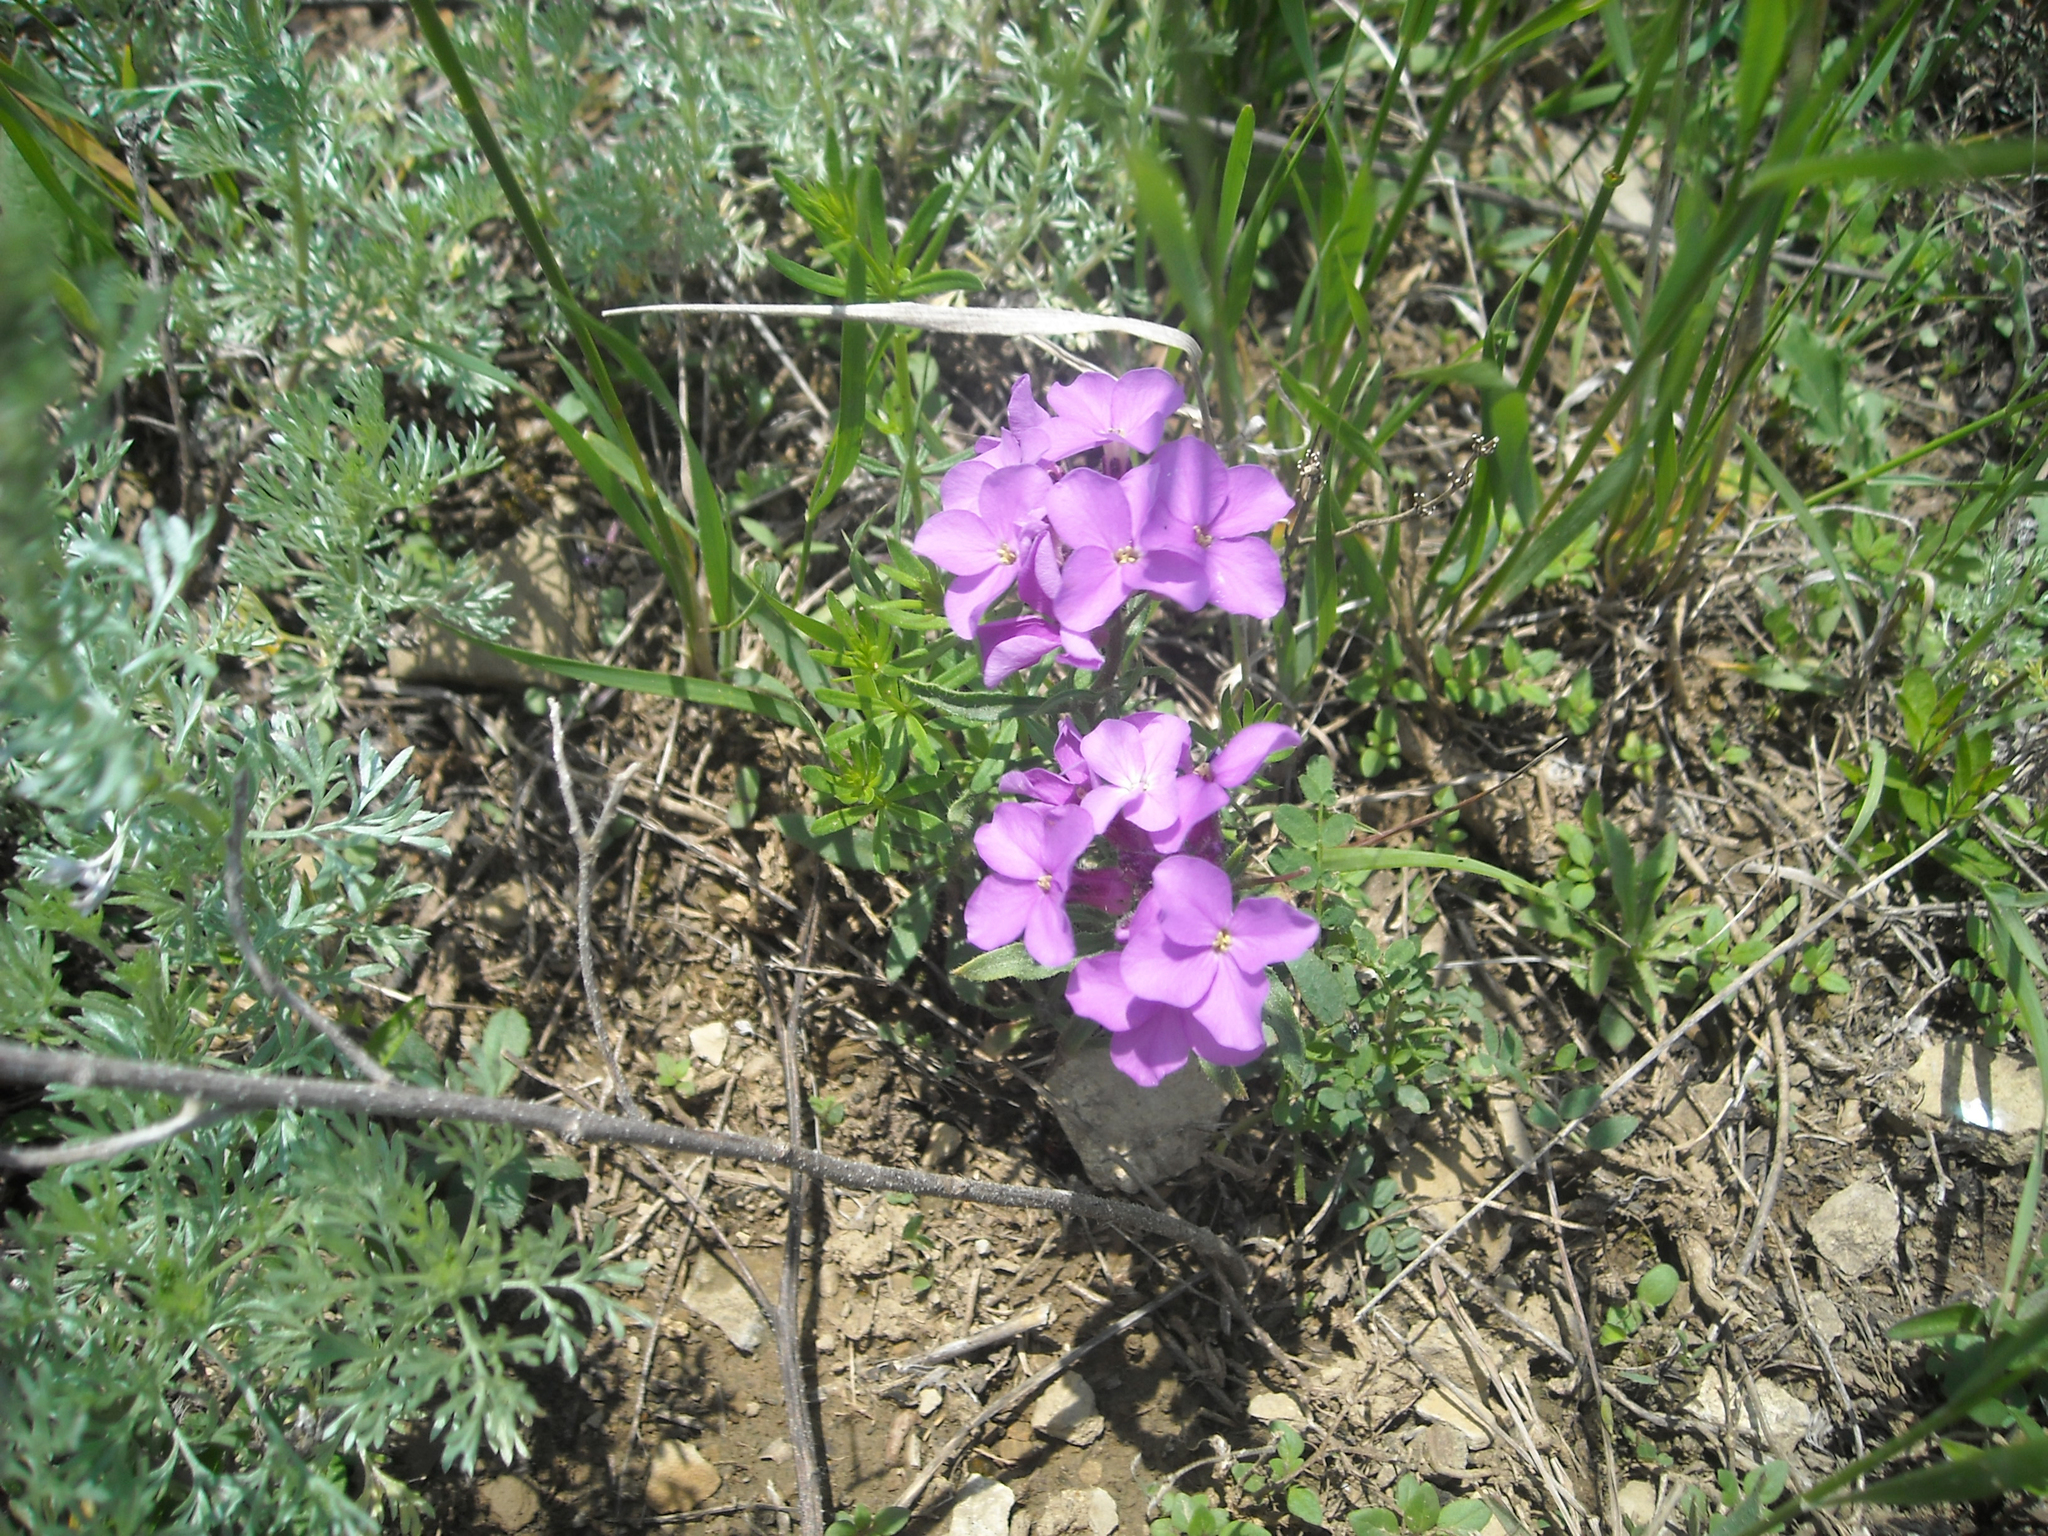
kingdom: Plantae
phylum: Tracheophyta
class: Magnoliopsida
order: Brassicales
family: Brassicaceae
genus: Clausia
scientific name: Clausia aprica
